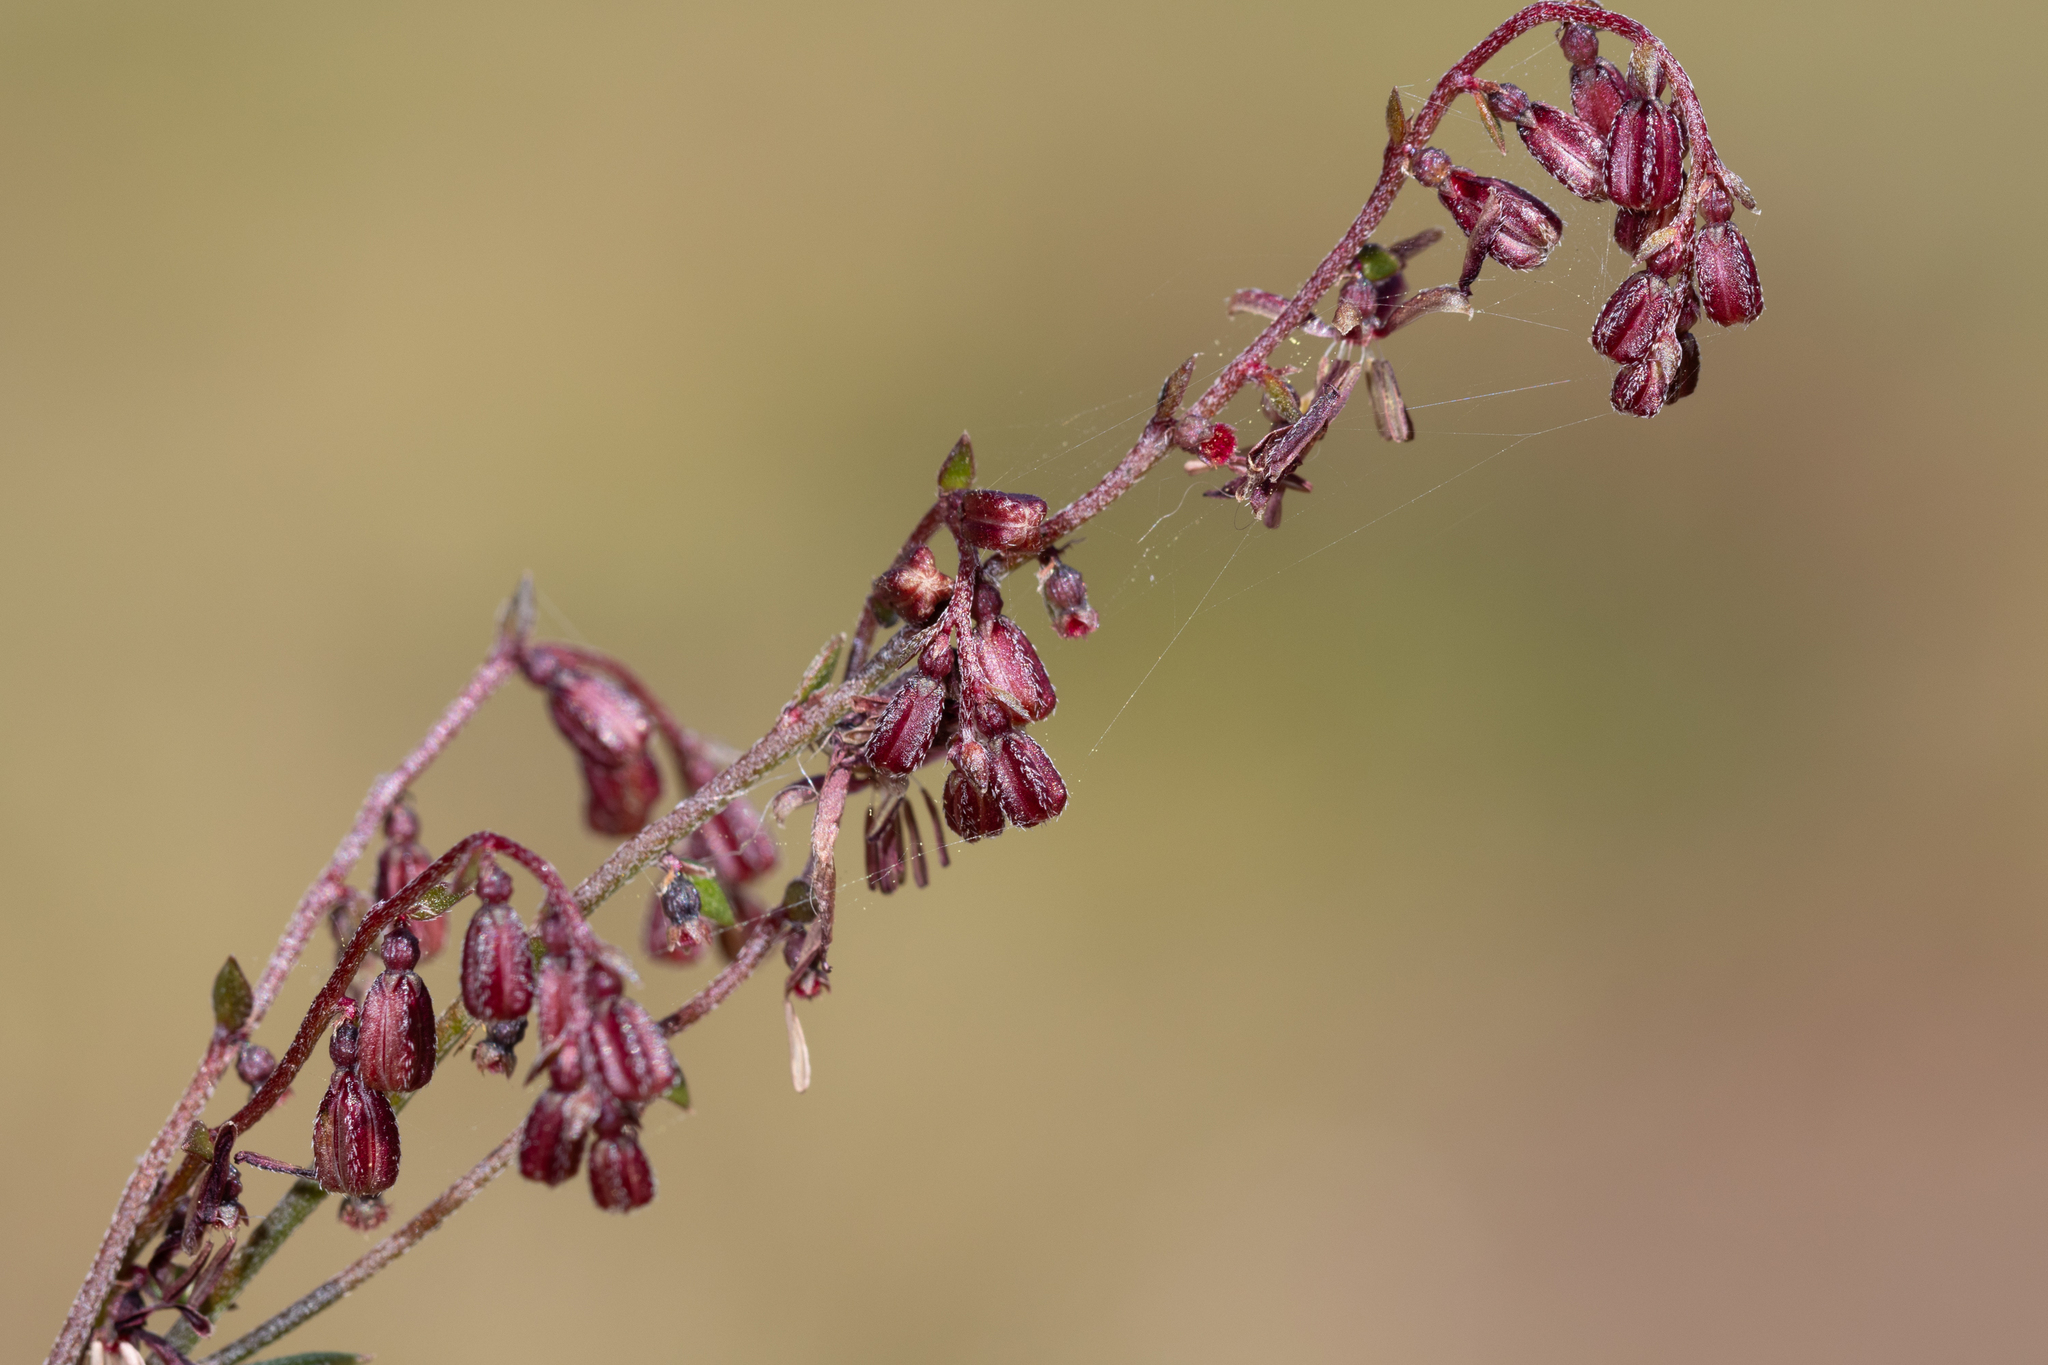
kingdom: Plantae
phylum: Tracheophyta
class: Magnoliopsida
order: Saxifragales
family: Haloragaceae
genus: Gonocarpus
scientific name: Gonocarpus tetragynus
